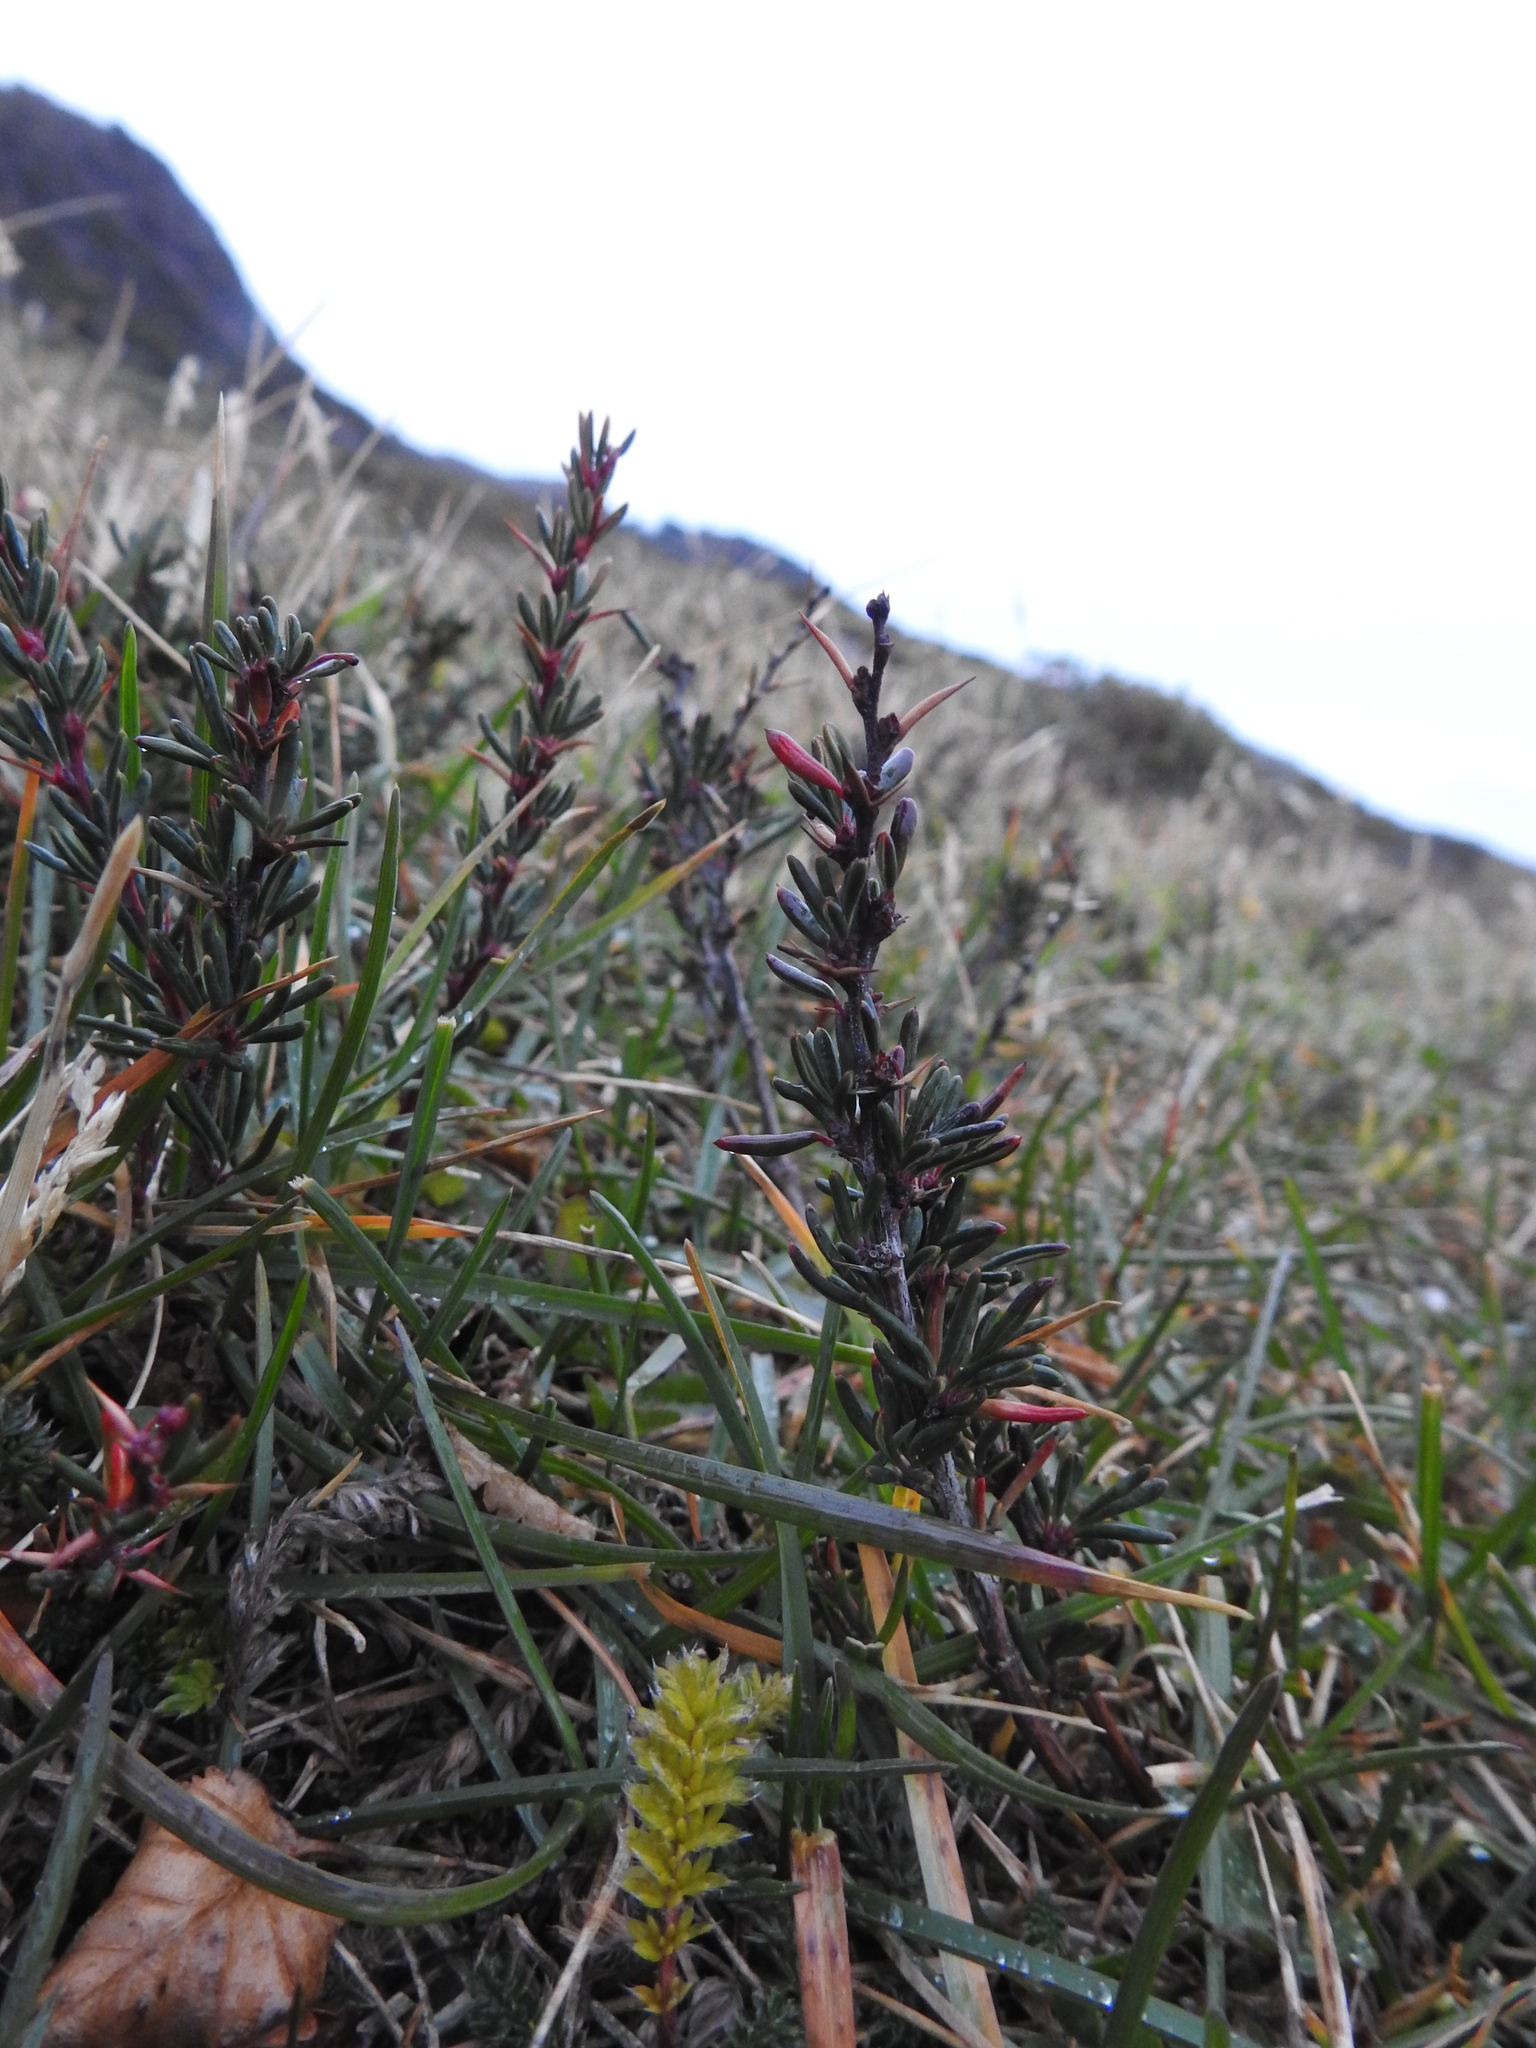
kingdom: Plantae
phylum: Tracheophyta
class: Magnoliopsida
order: Ranunculales
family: Berberidaceae
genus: Berberis
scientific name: Berberis empetrifolia
